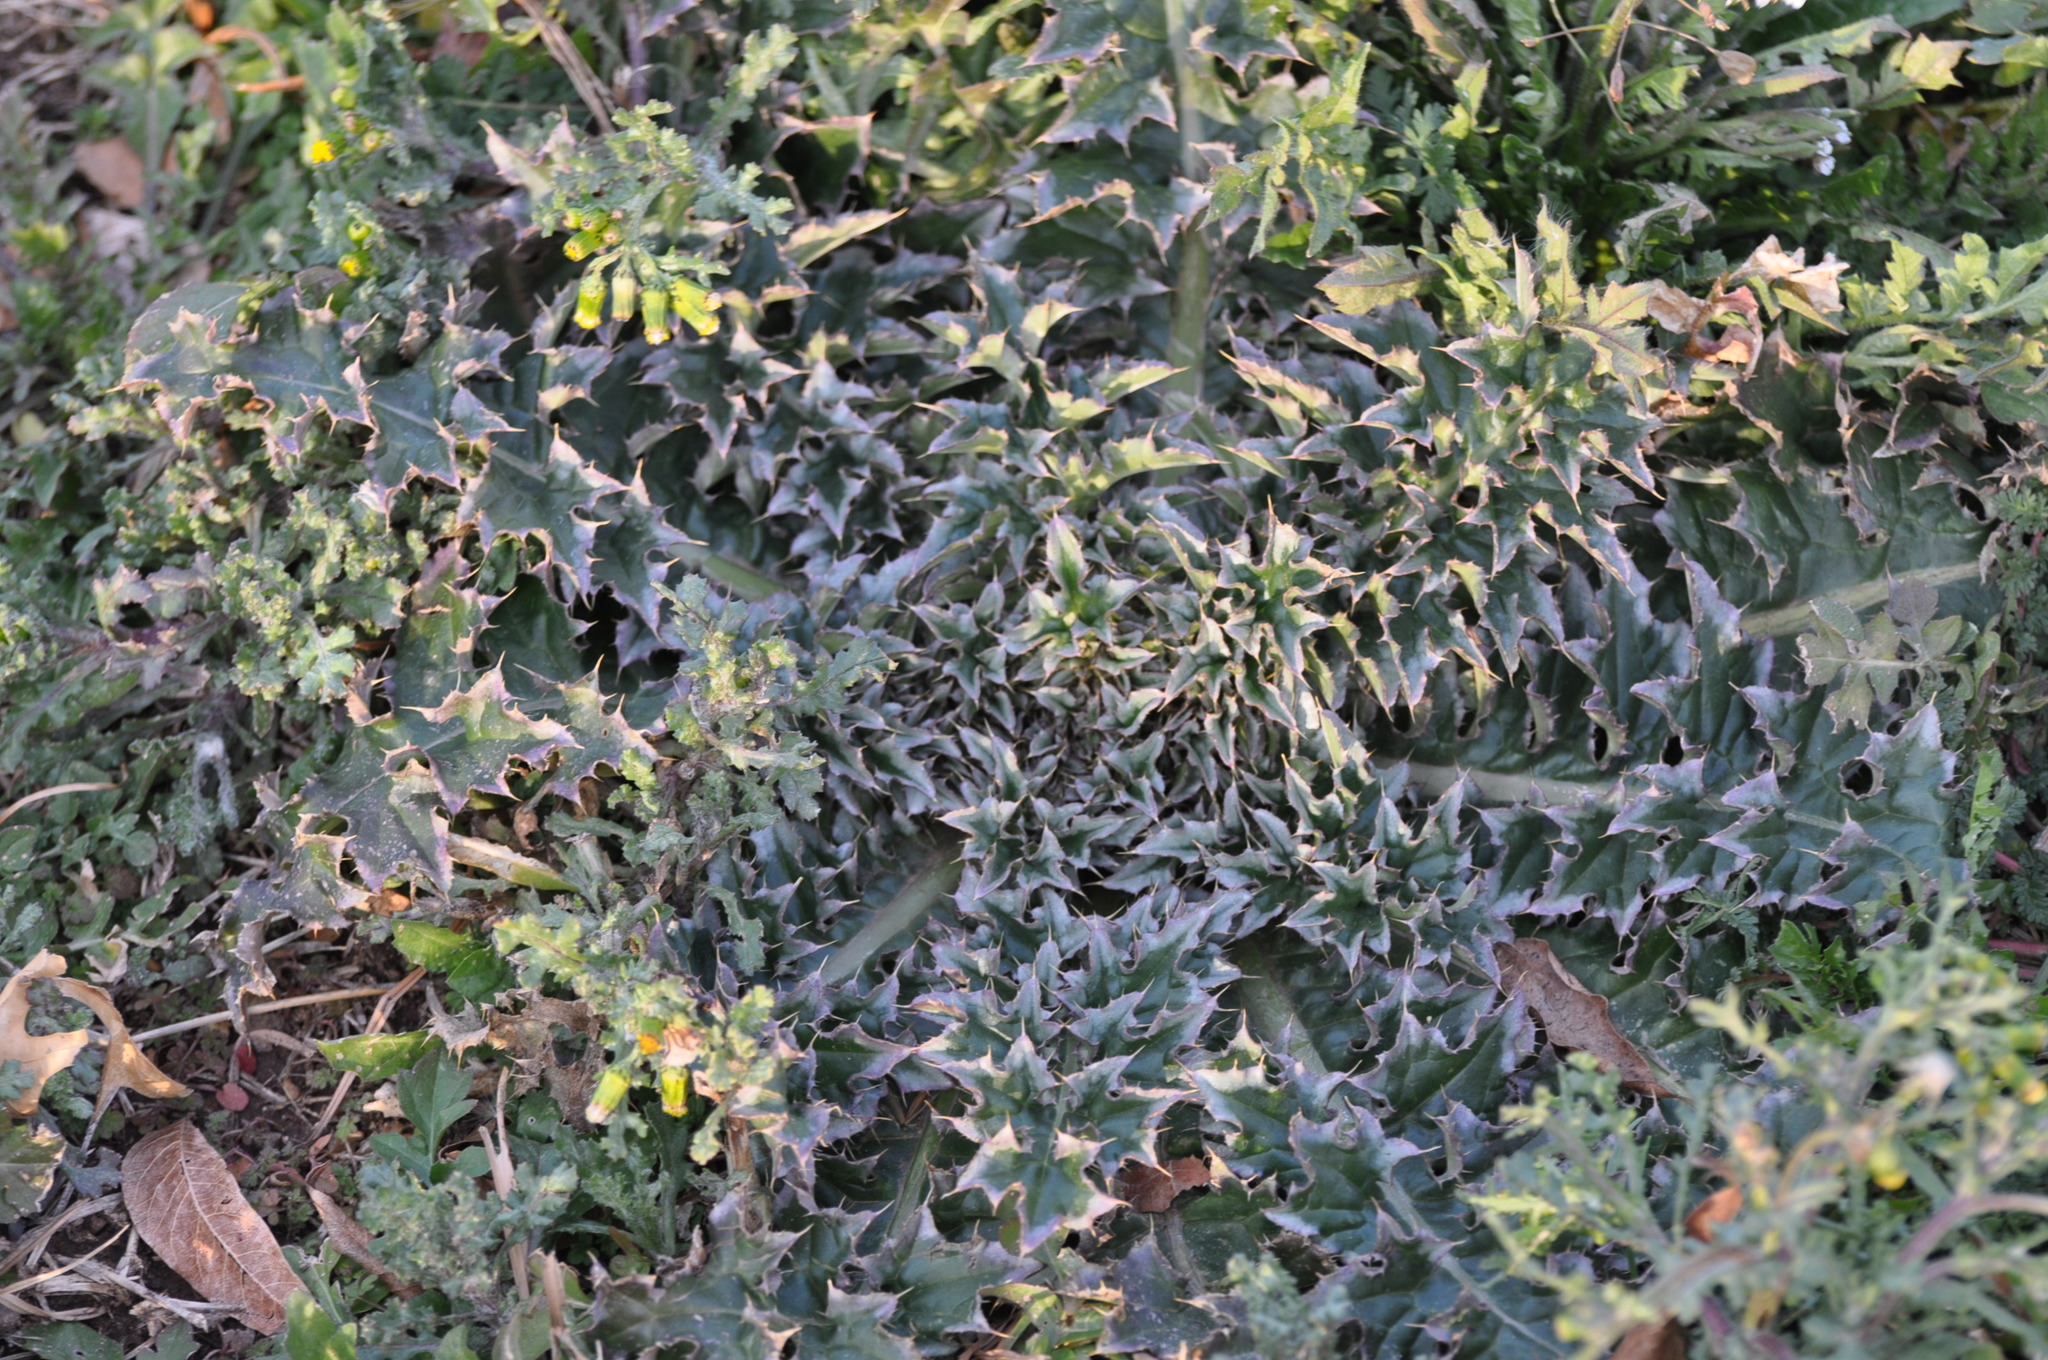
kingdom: Plantae
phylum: Tracheophyta
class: Magnoliopsida
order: Asterales
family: Asteraceae
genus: Carduus
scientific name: Carduus nutans
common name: Musk thistle
